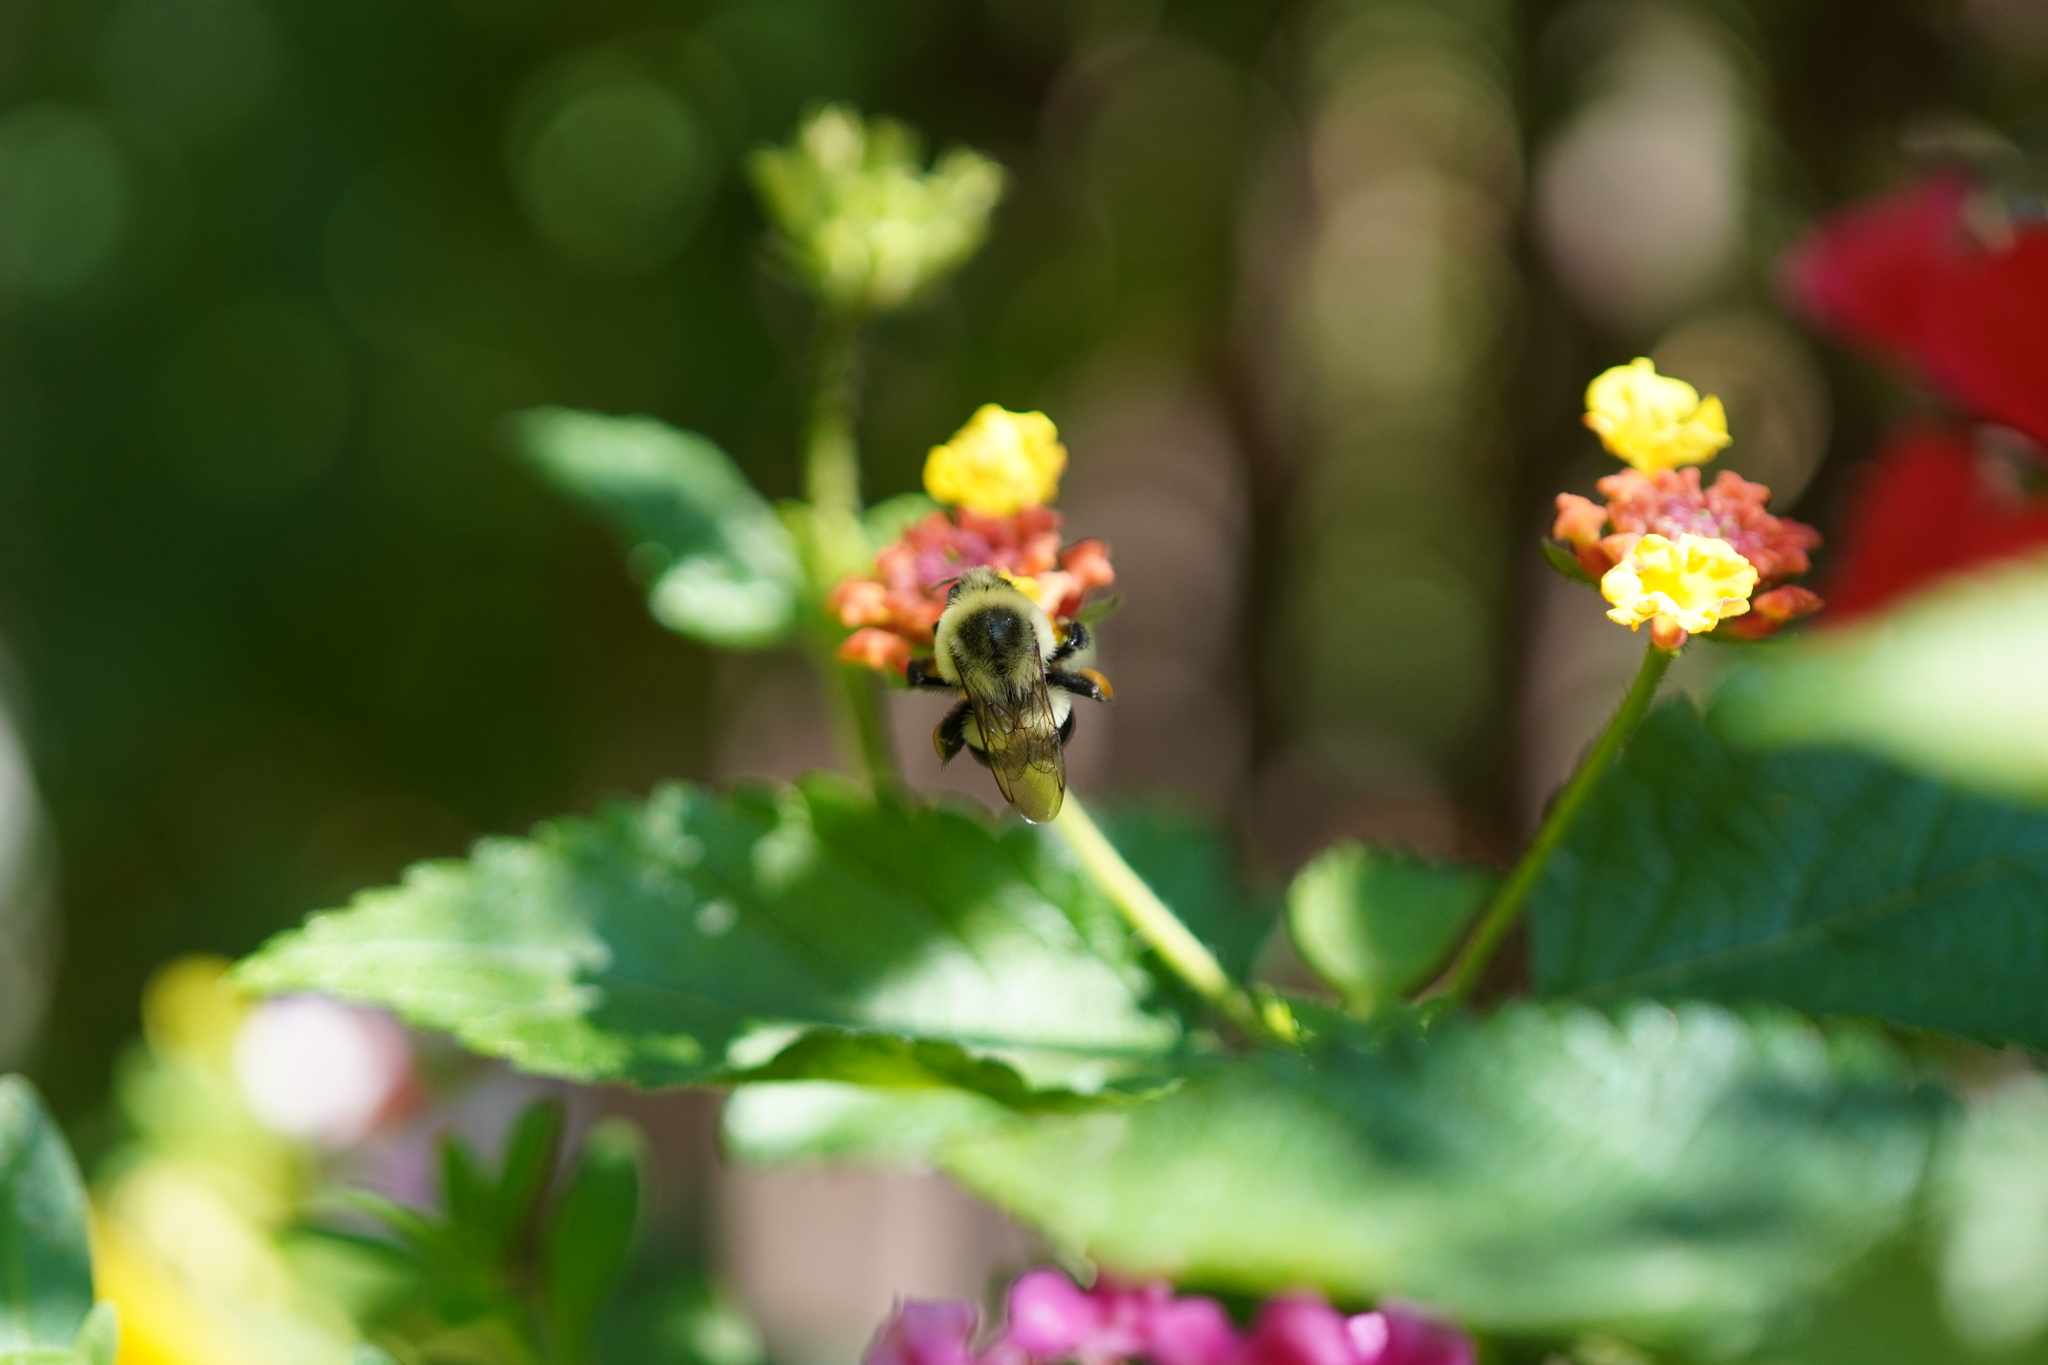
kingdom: Animalia
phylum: Arthropoda
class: Insecta
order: Hymenoptera
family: Apidae
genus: Bombus
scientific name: Bombus impatiens
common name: Common eastern bumble bee
